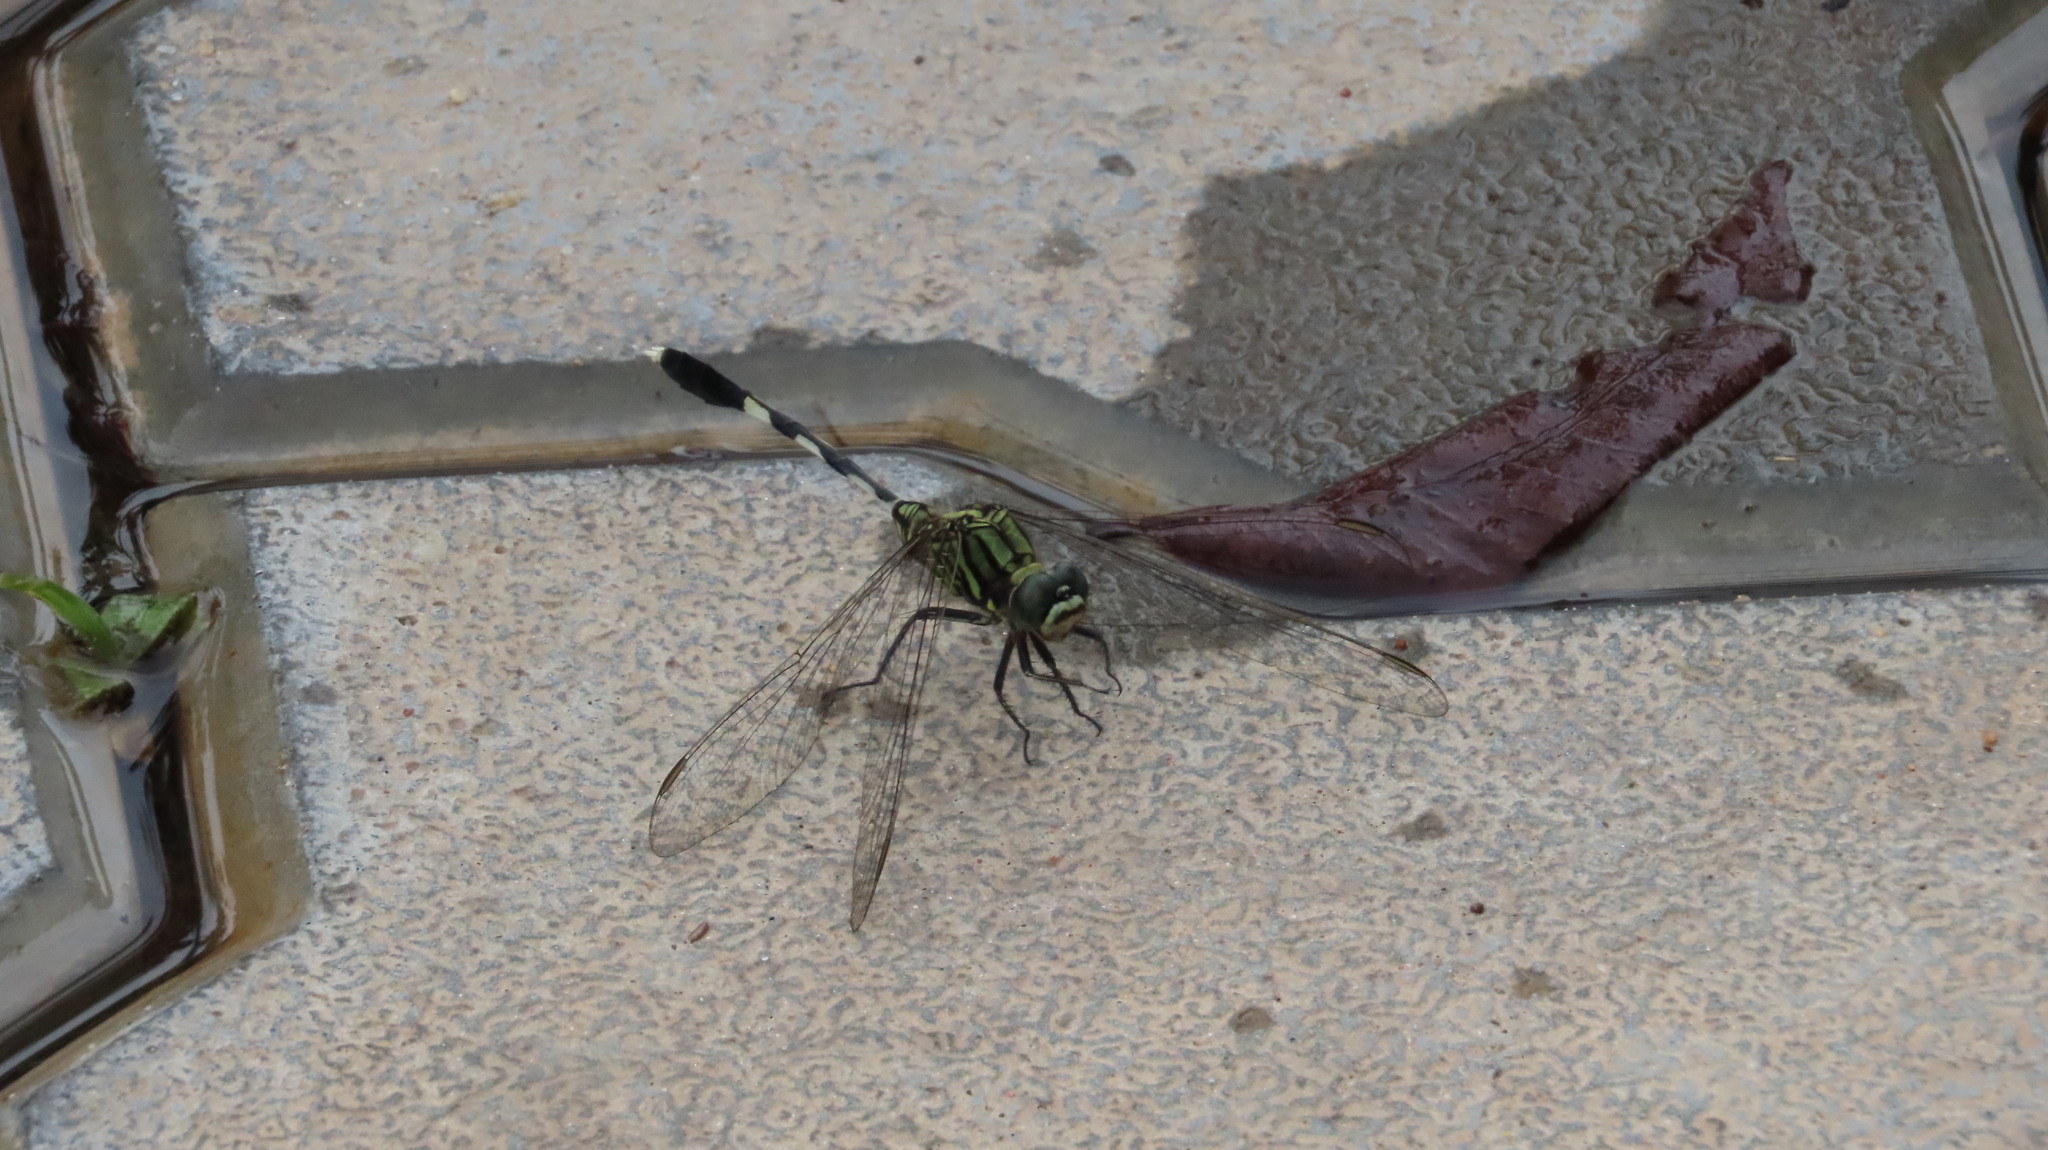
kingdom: Animalia
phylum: Arthropoda
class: Insecta
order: Odonata
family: Libellulidae
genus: Orthetrum
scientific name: Orthetrum sabina
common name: Slender skimmer
